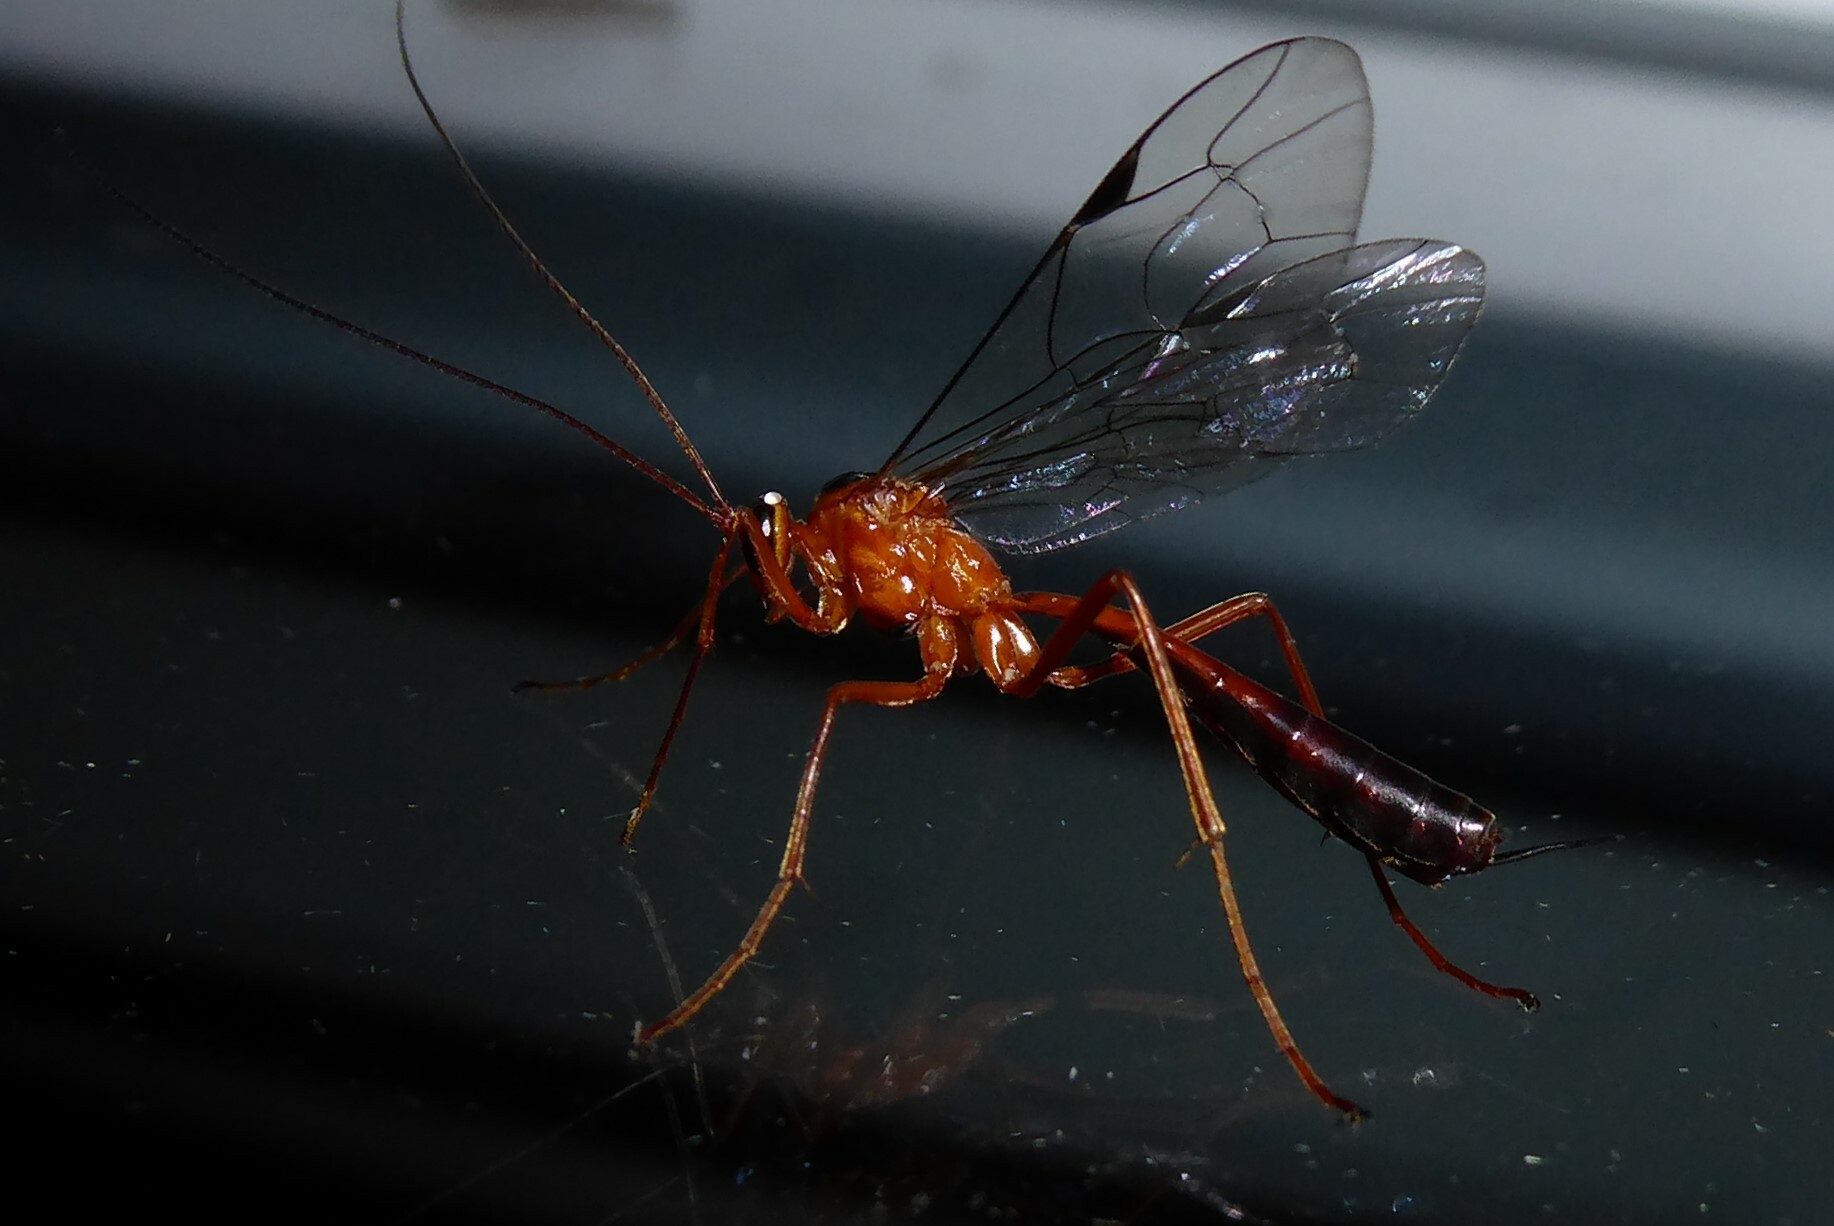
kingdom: Animalia
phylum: Arthropoda
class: Insecta
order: Hymenoptera
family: Ichneumonidae
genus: Netelia
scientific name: Netelia ephippiata
